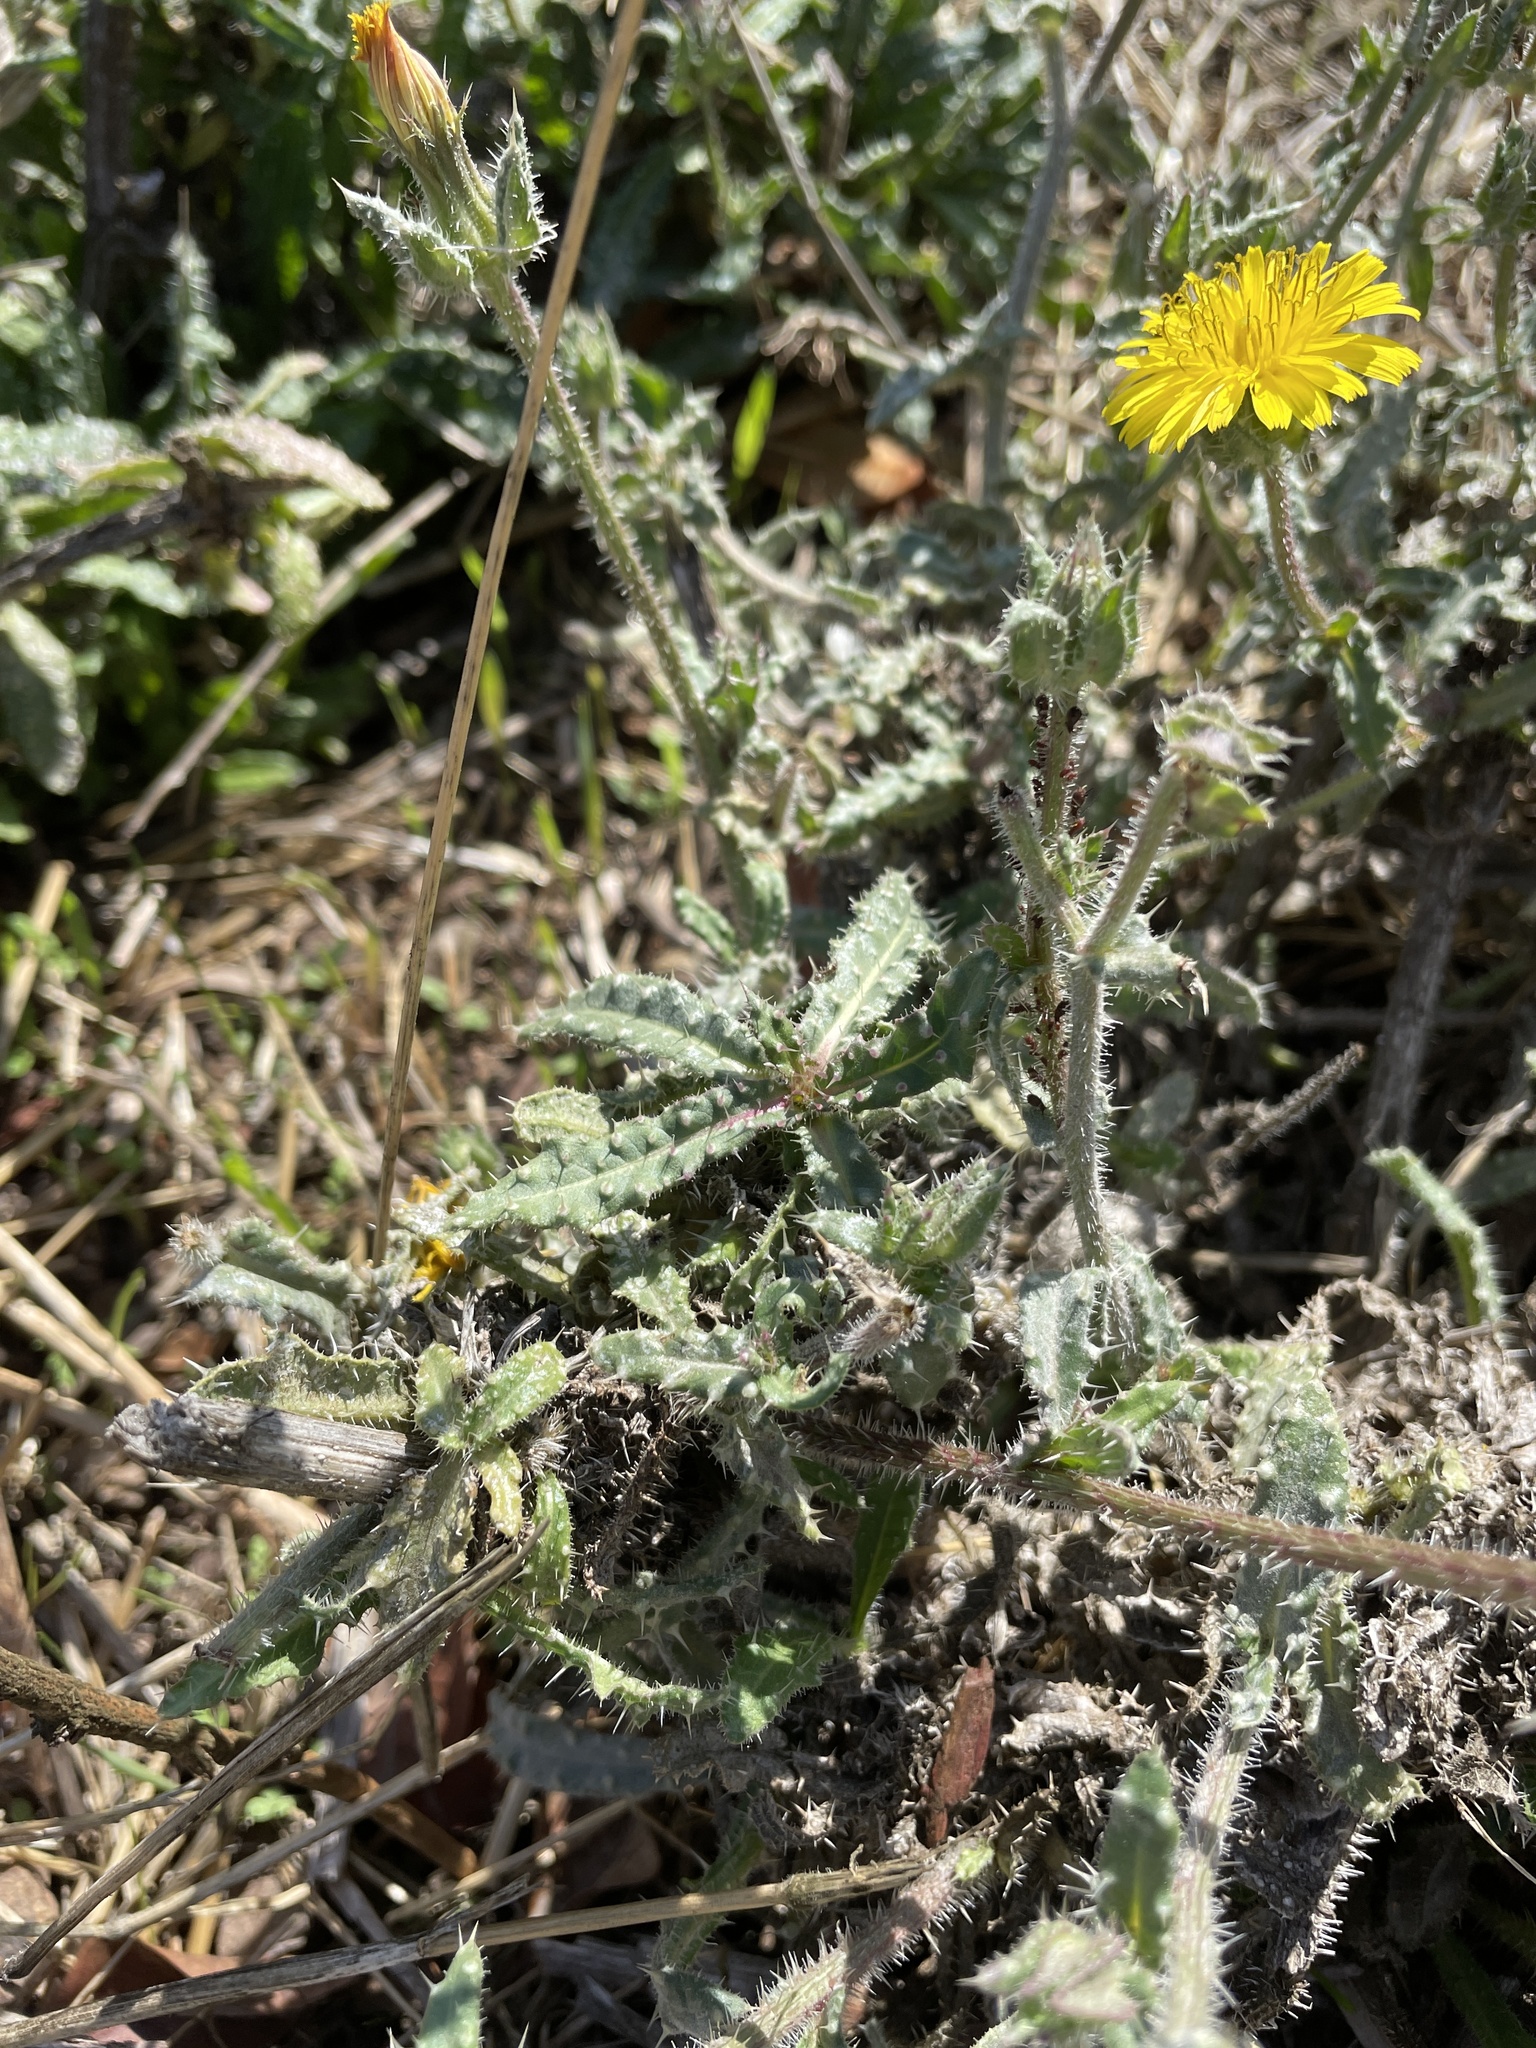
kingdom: Plantae
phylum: Tracheophyta
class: Magnoliopsida
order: Asterales
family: Asteraceae
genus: Helminthotheca
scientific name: Helminthotheca echioides
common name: Ox-tongue
